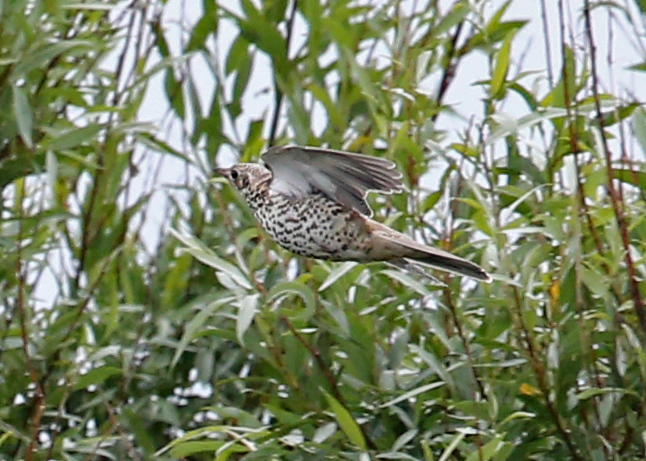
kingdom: Animalia
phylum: Chordata
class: Aves
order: Passeriformes
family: Turdidae
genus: Turdus
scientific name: Turdus viscivorus
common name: Mistle thrush
